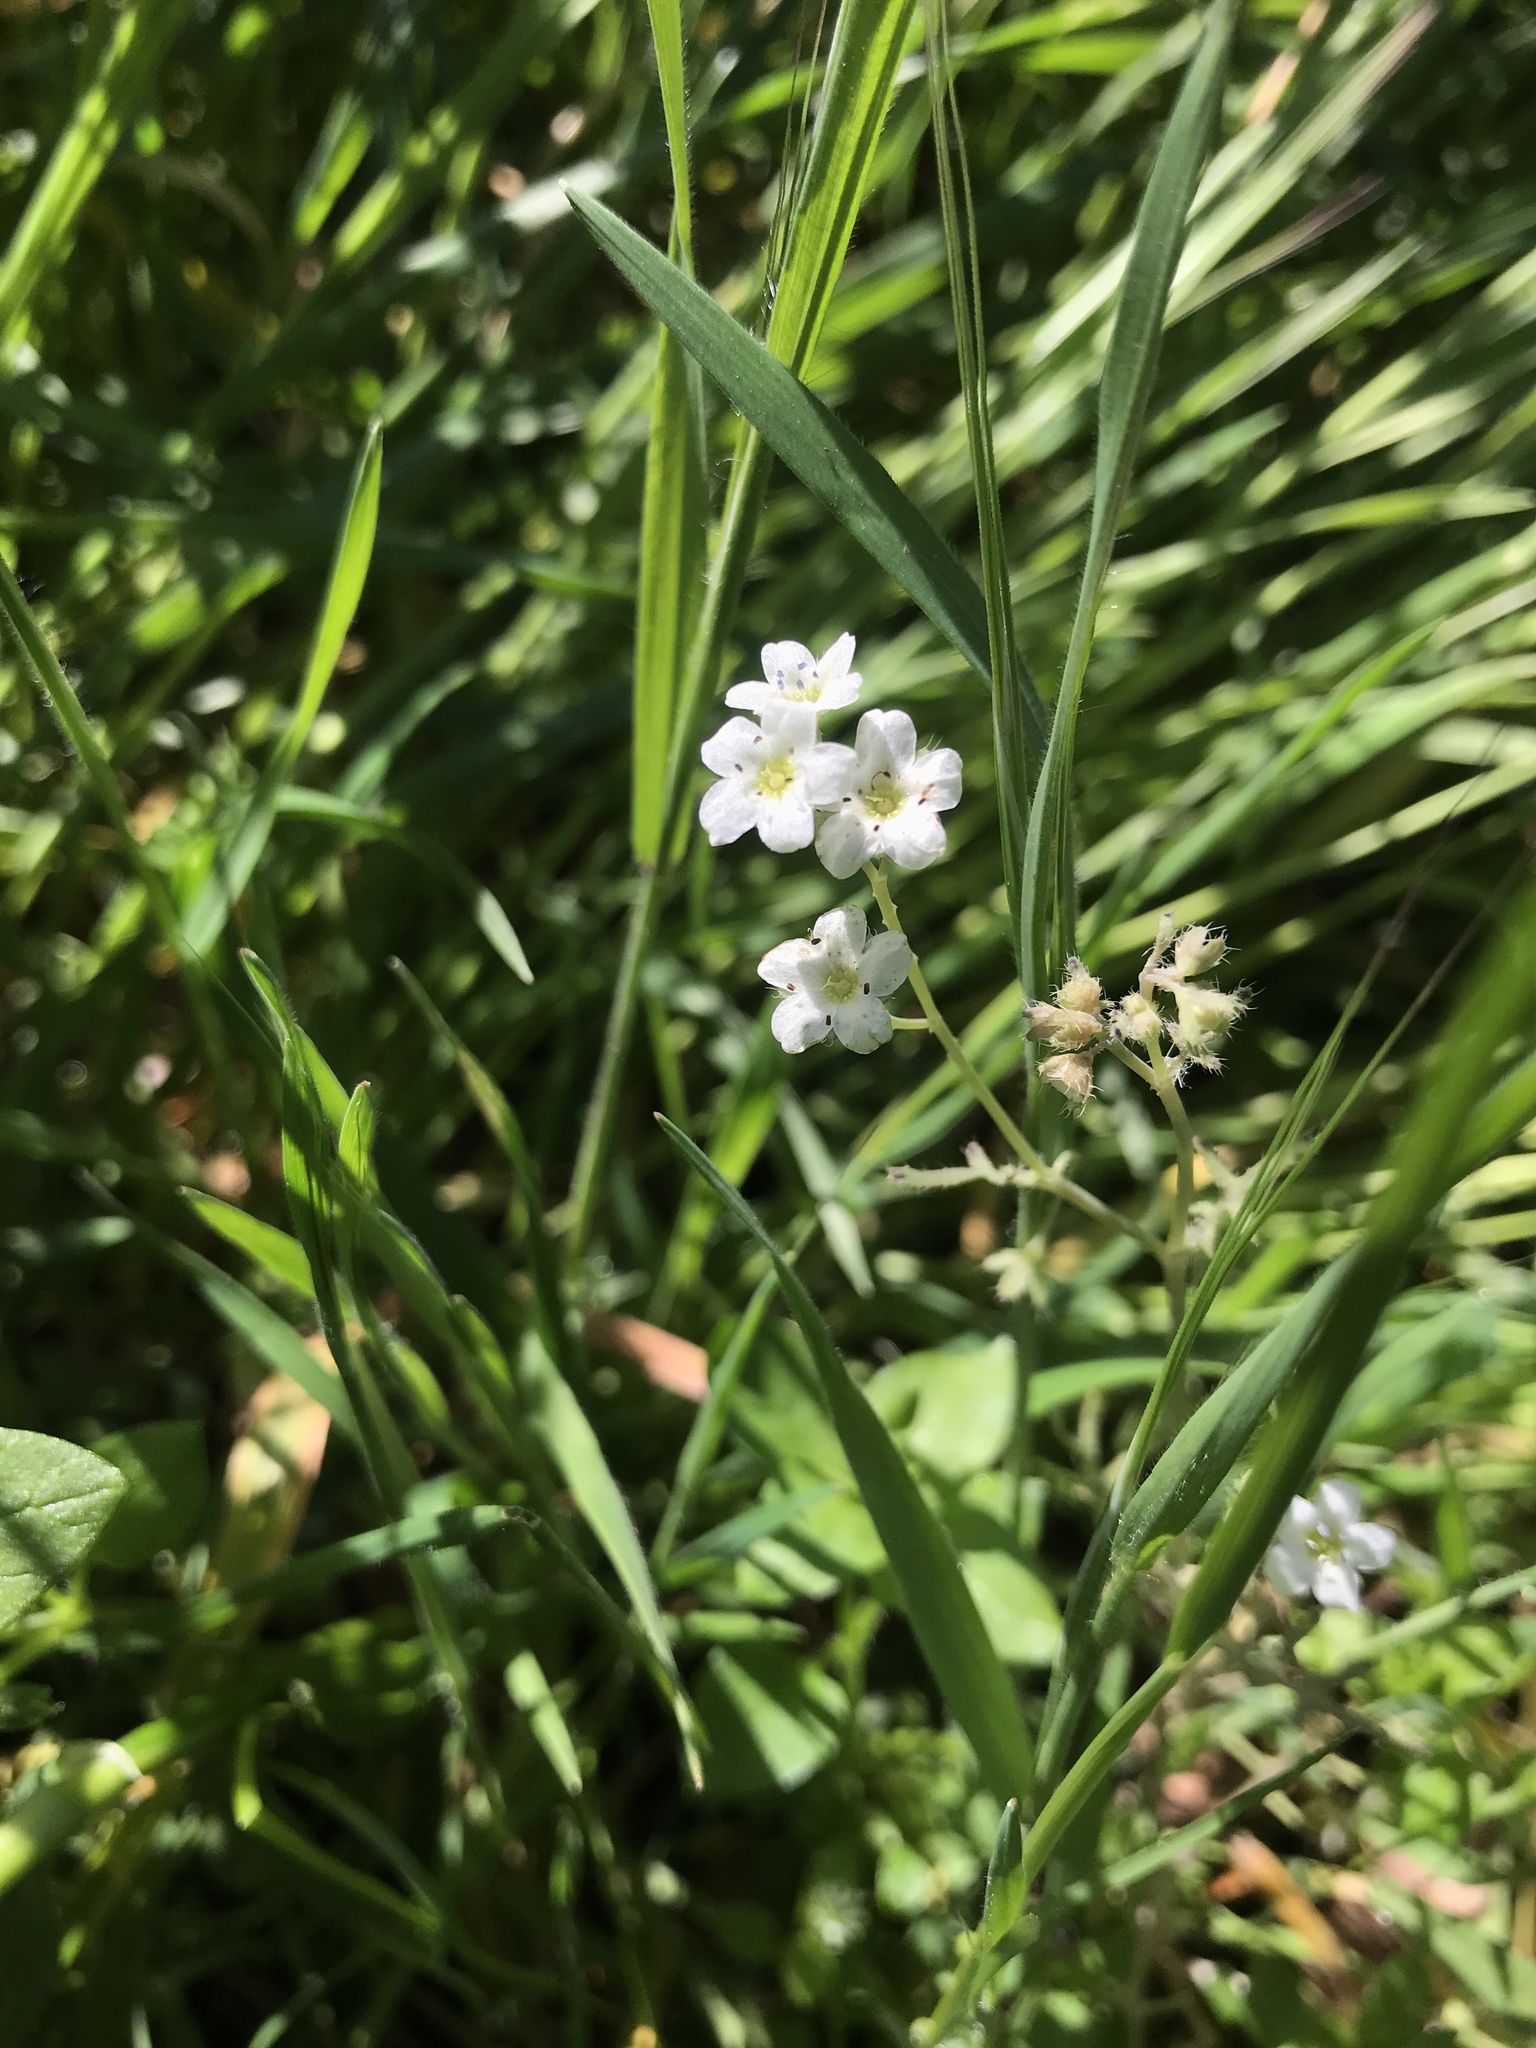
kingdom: Plantae
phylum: Tracheophyta
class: Magnoliopsida
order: Boraginales
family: Hydrophyllaceae
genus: Pholistoma
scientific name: Pholistoma membranaceum
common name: White fiesta-flower
